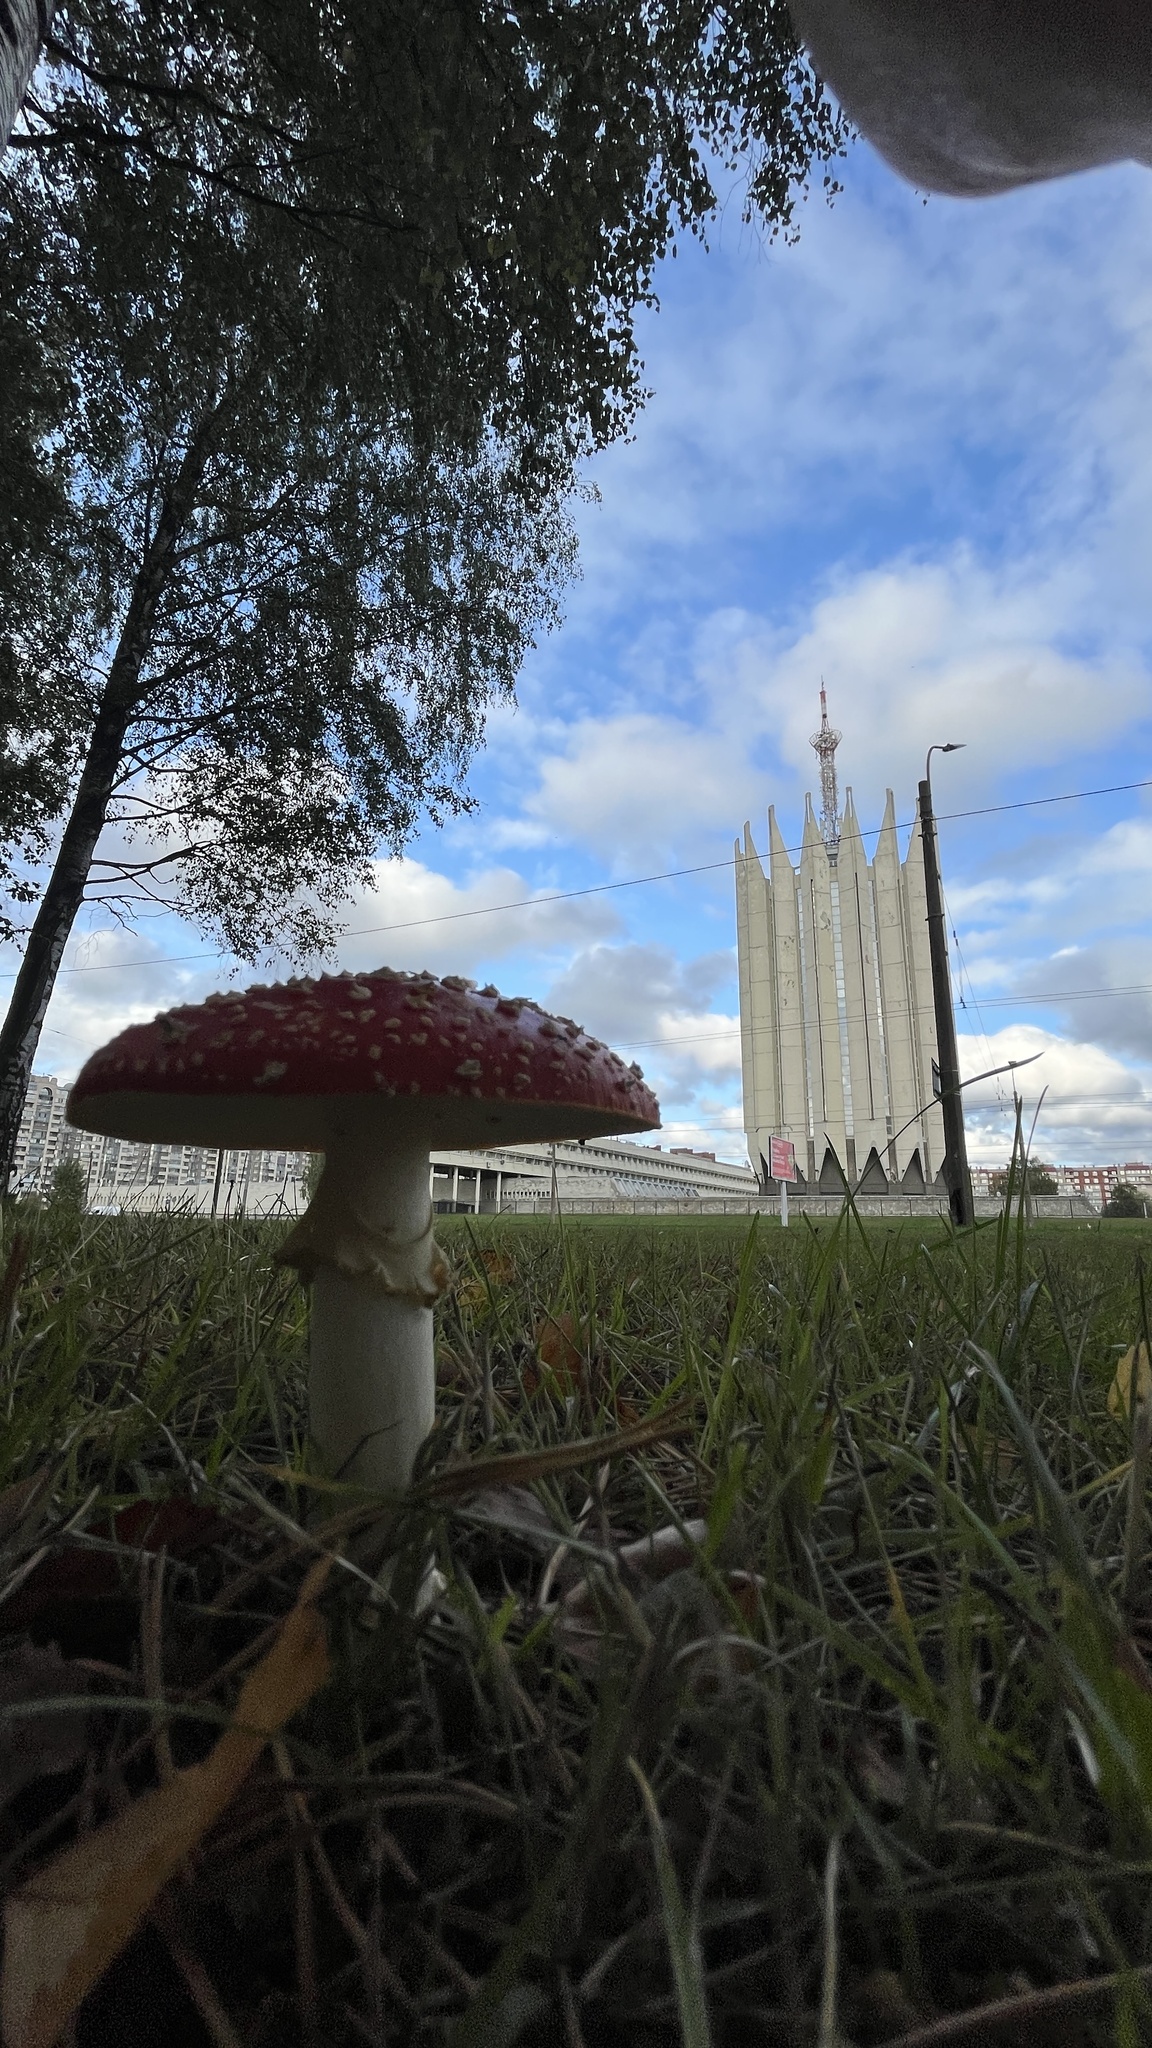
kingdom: Fungi
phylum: Basidiomycota
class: Agaricomycetes
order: Agaricales
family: Amanitaceae
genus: Amanita
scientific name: Amanita muscaria
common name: Fly agaric
